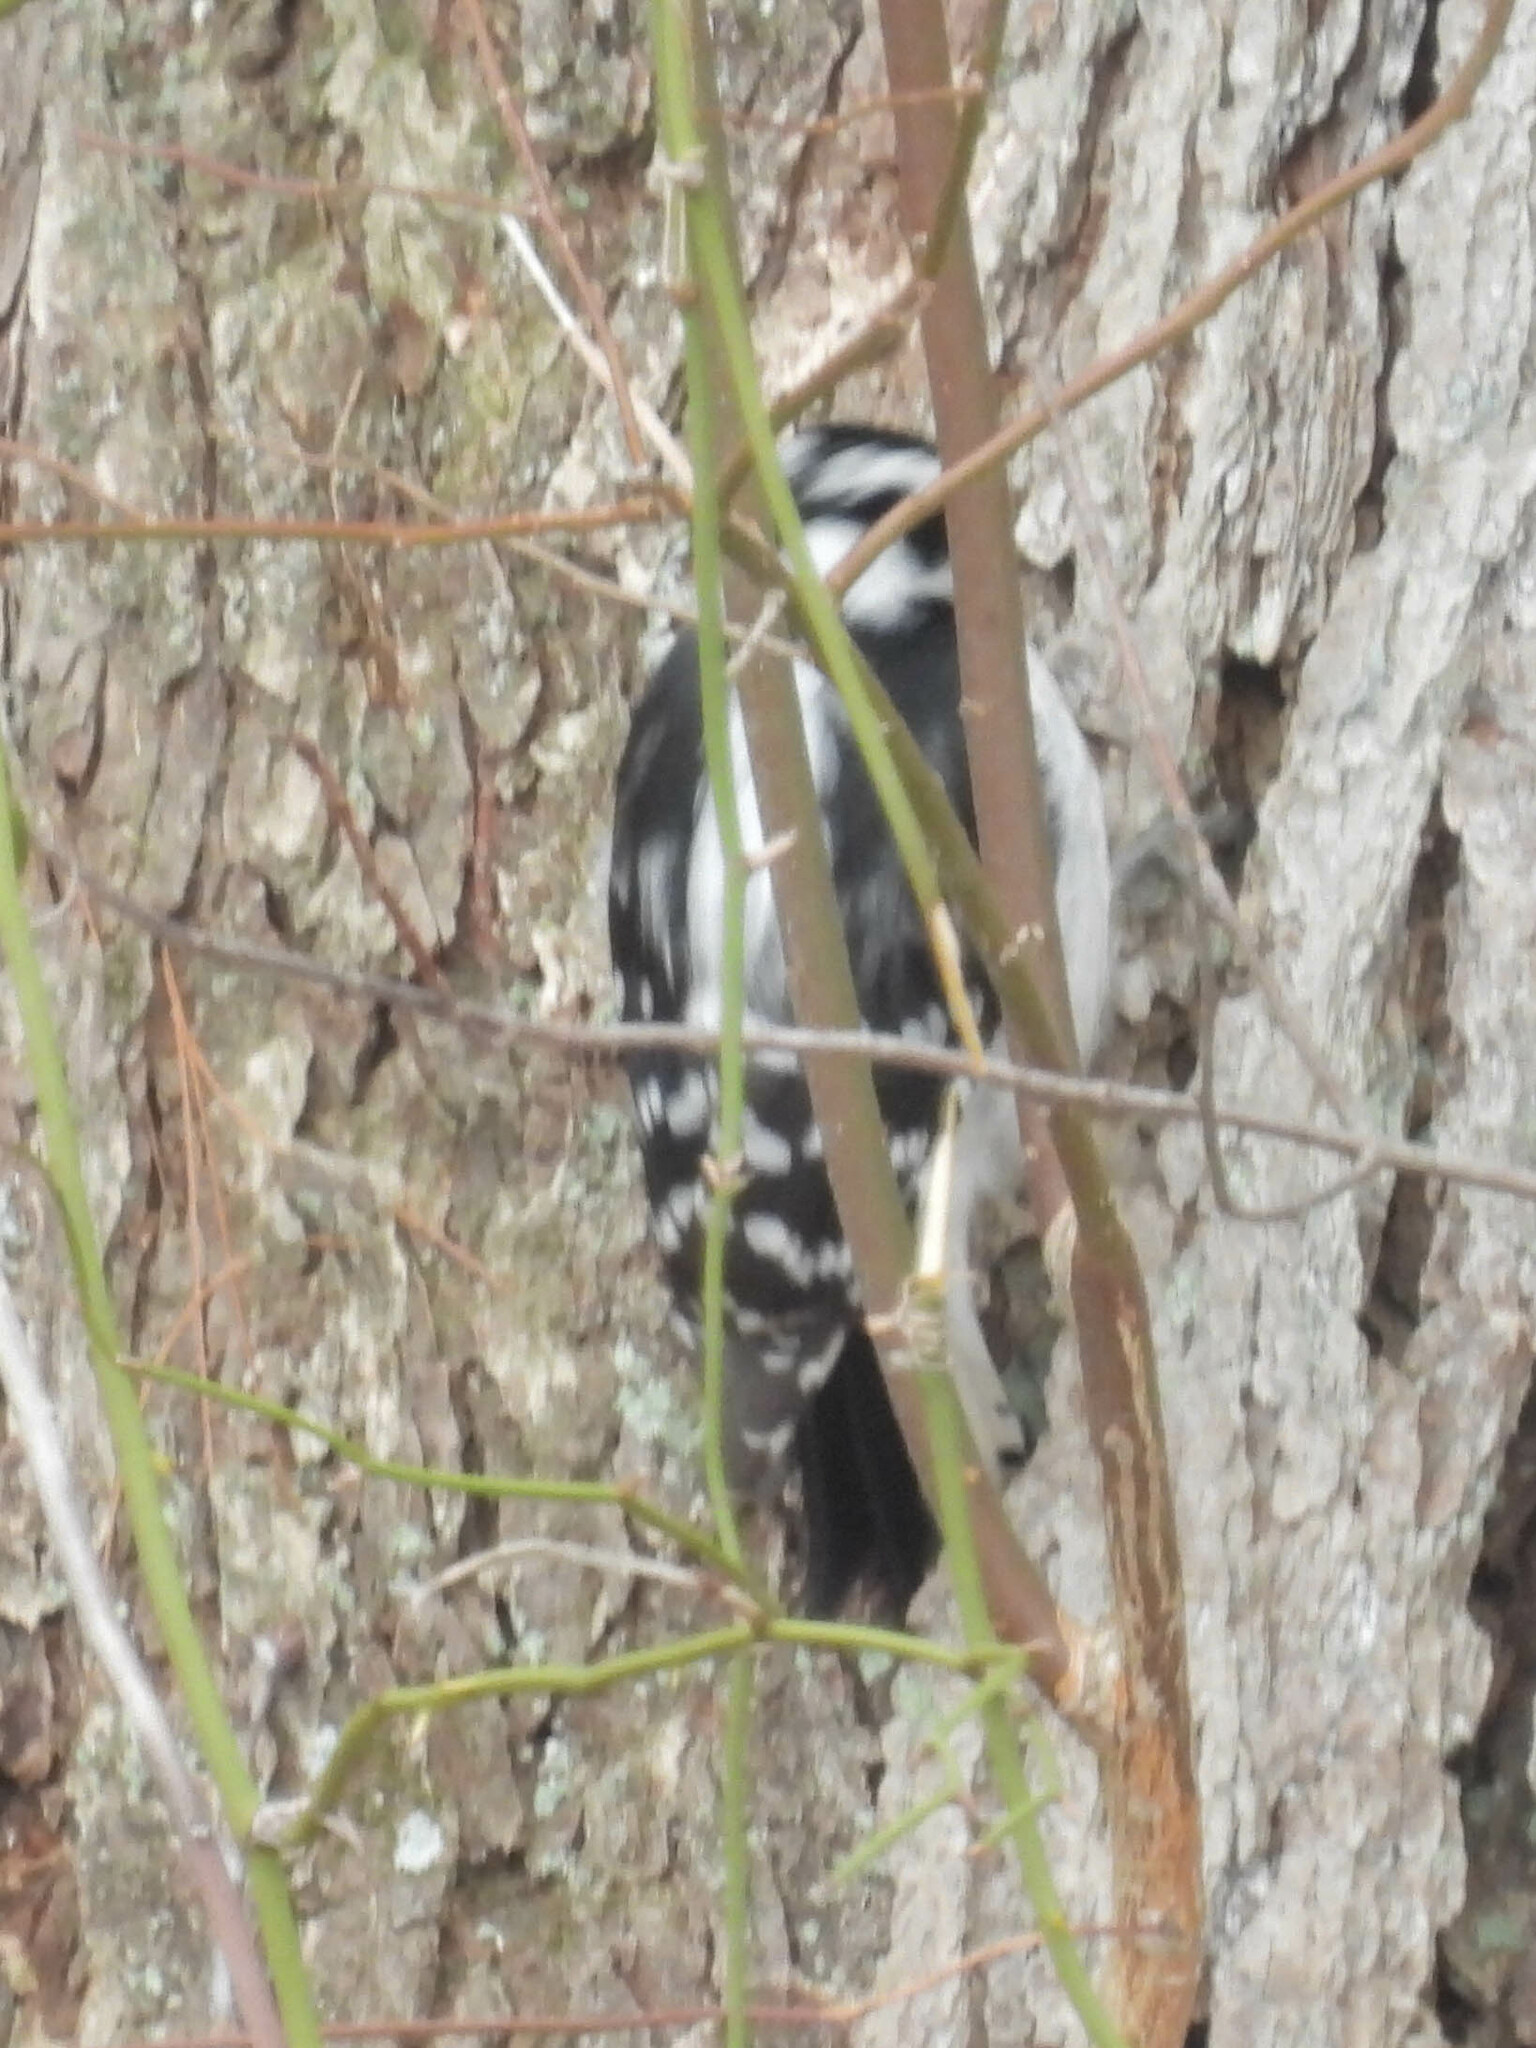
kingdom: Animalia
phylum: Chordata
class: Aves
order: Piciformes
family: Picidae
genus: Dryobates
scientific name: Dryobates pubescens
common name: Downy woodpecker
